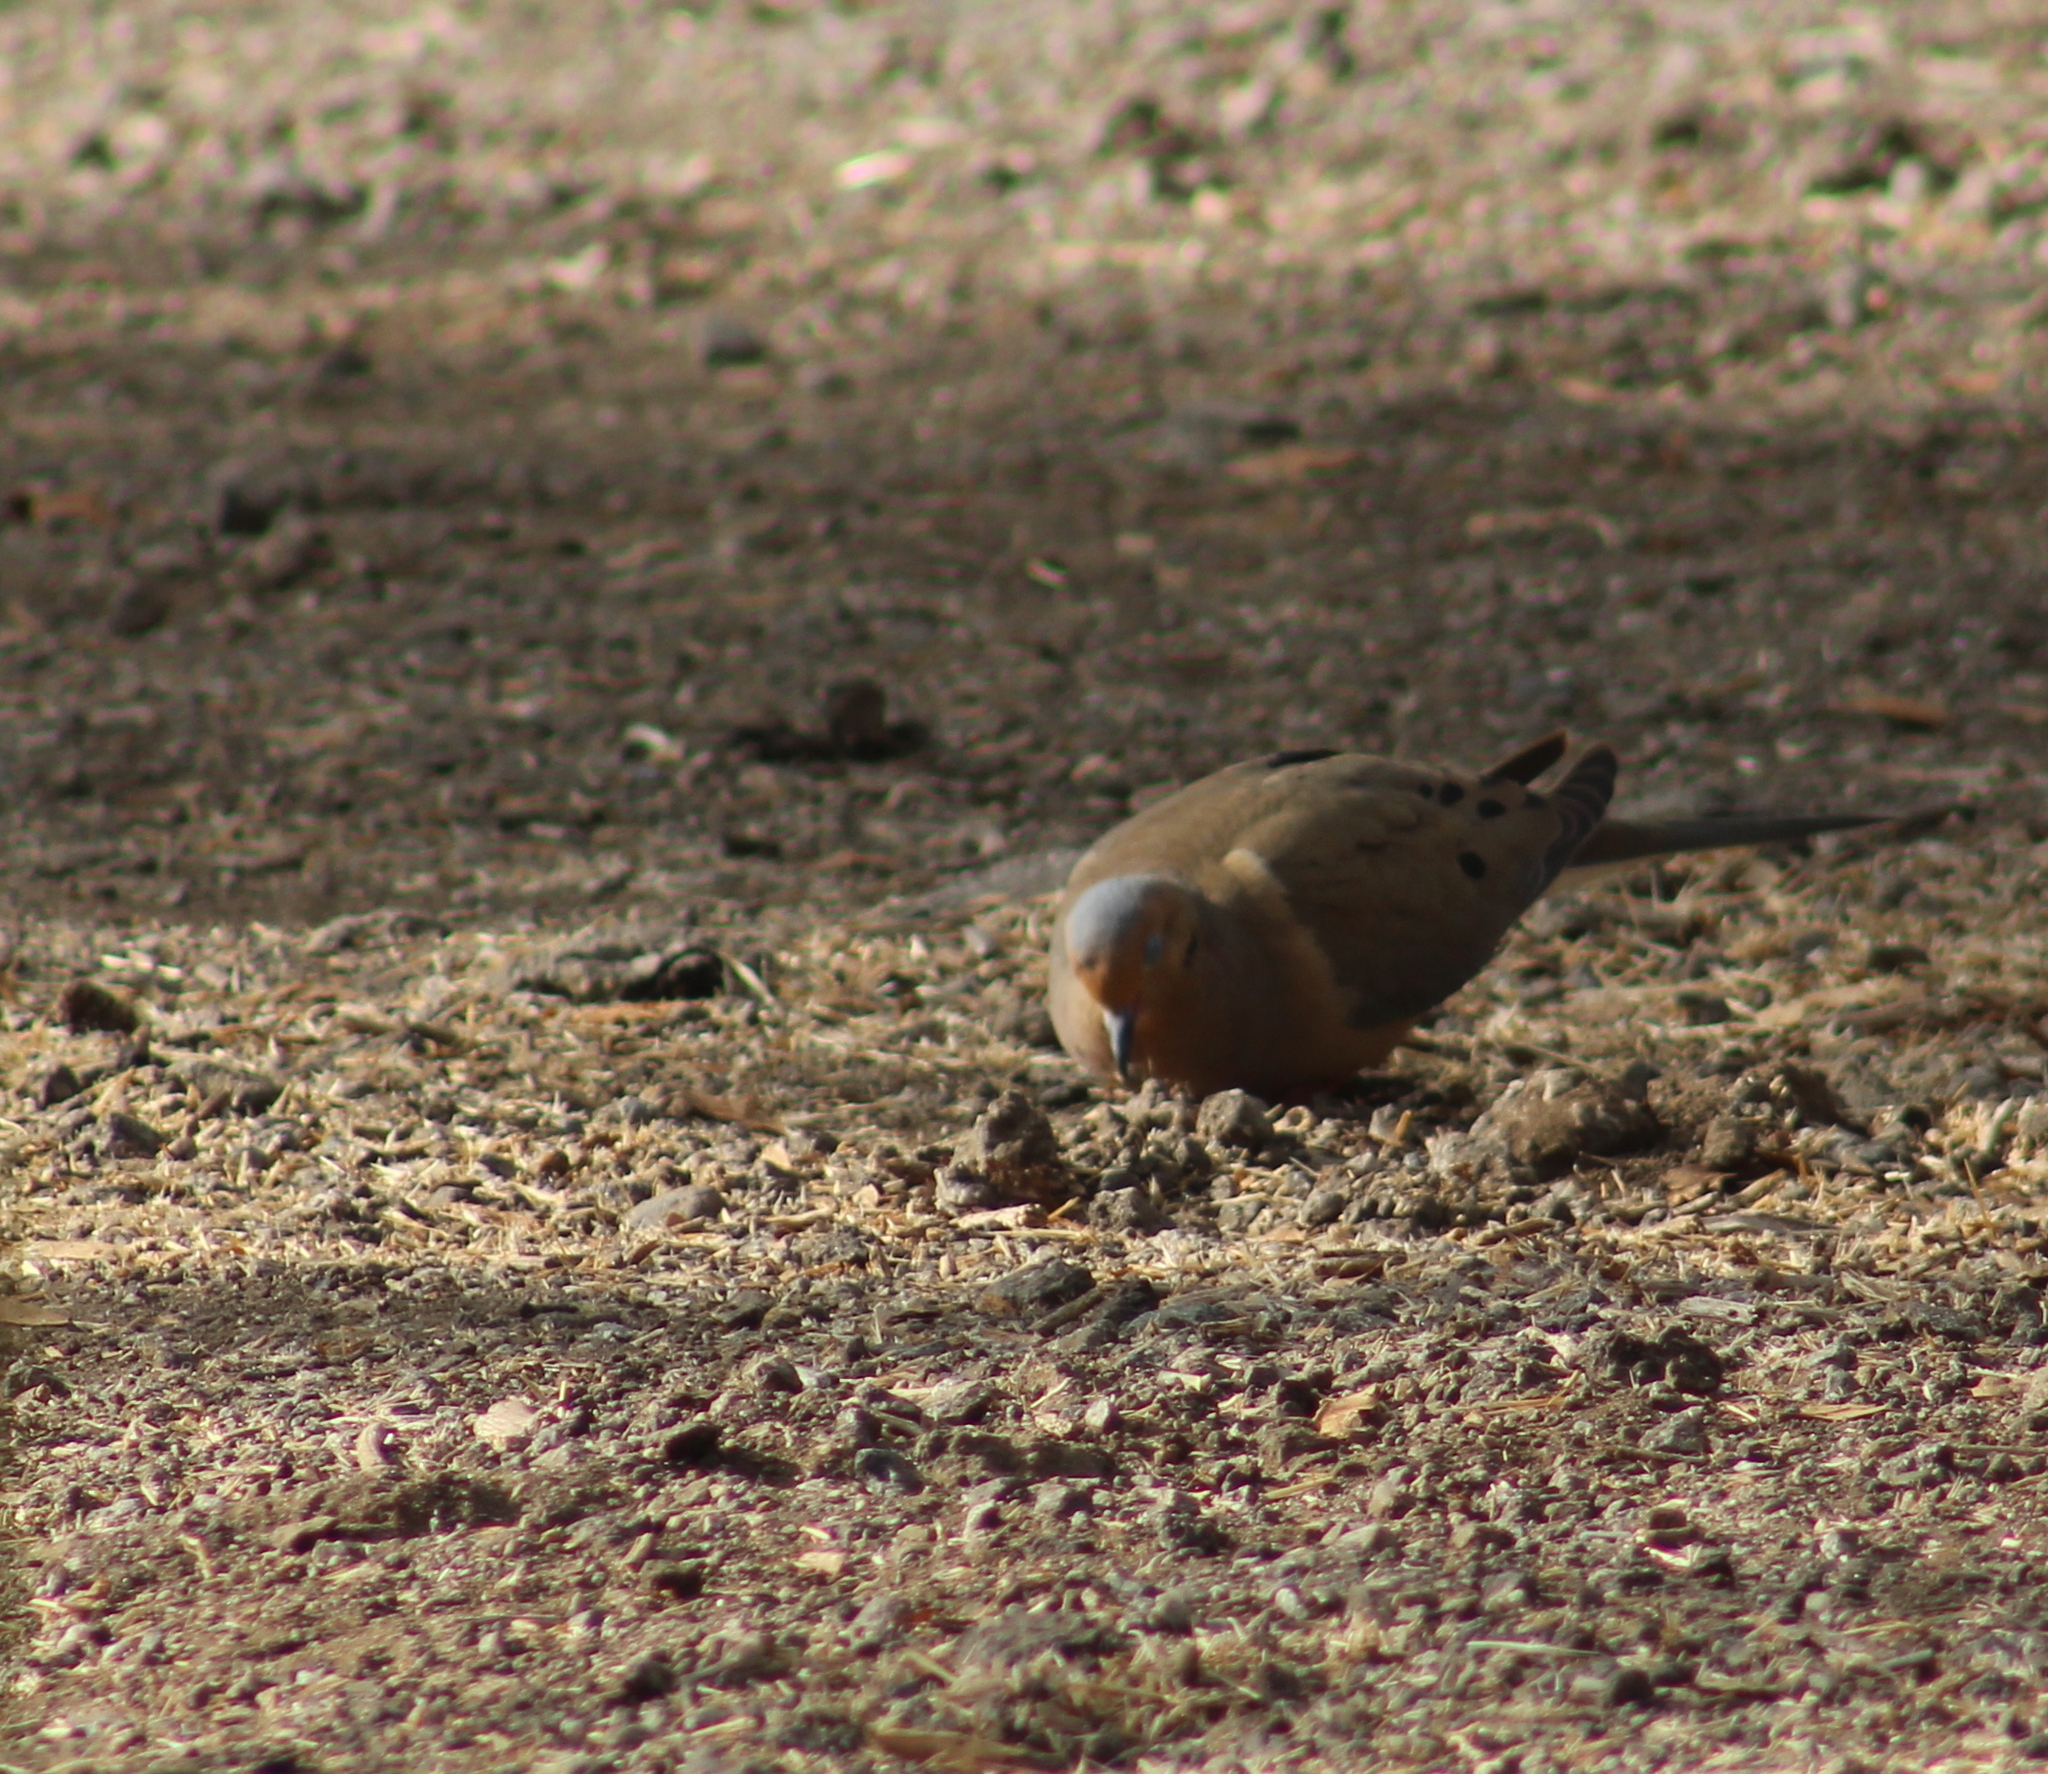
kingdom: Animalia
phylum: Chordata
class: Aves
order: Columbiformes
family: Columbidae
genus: Zenaida
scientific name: Zenaida macroura
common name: Mourning dove
